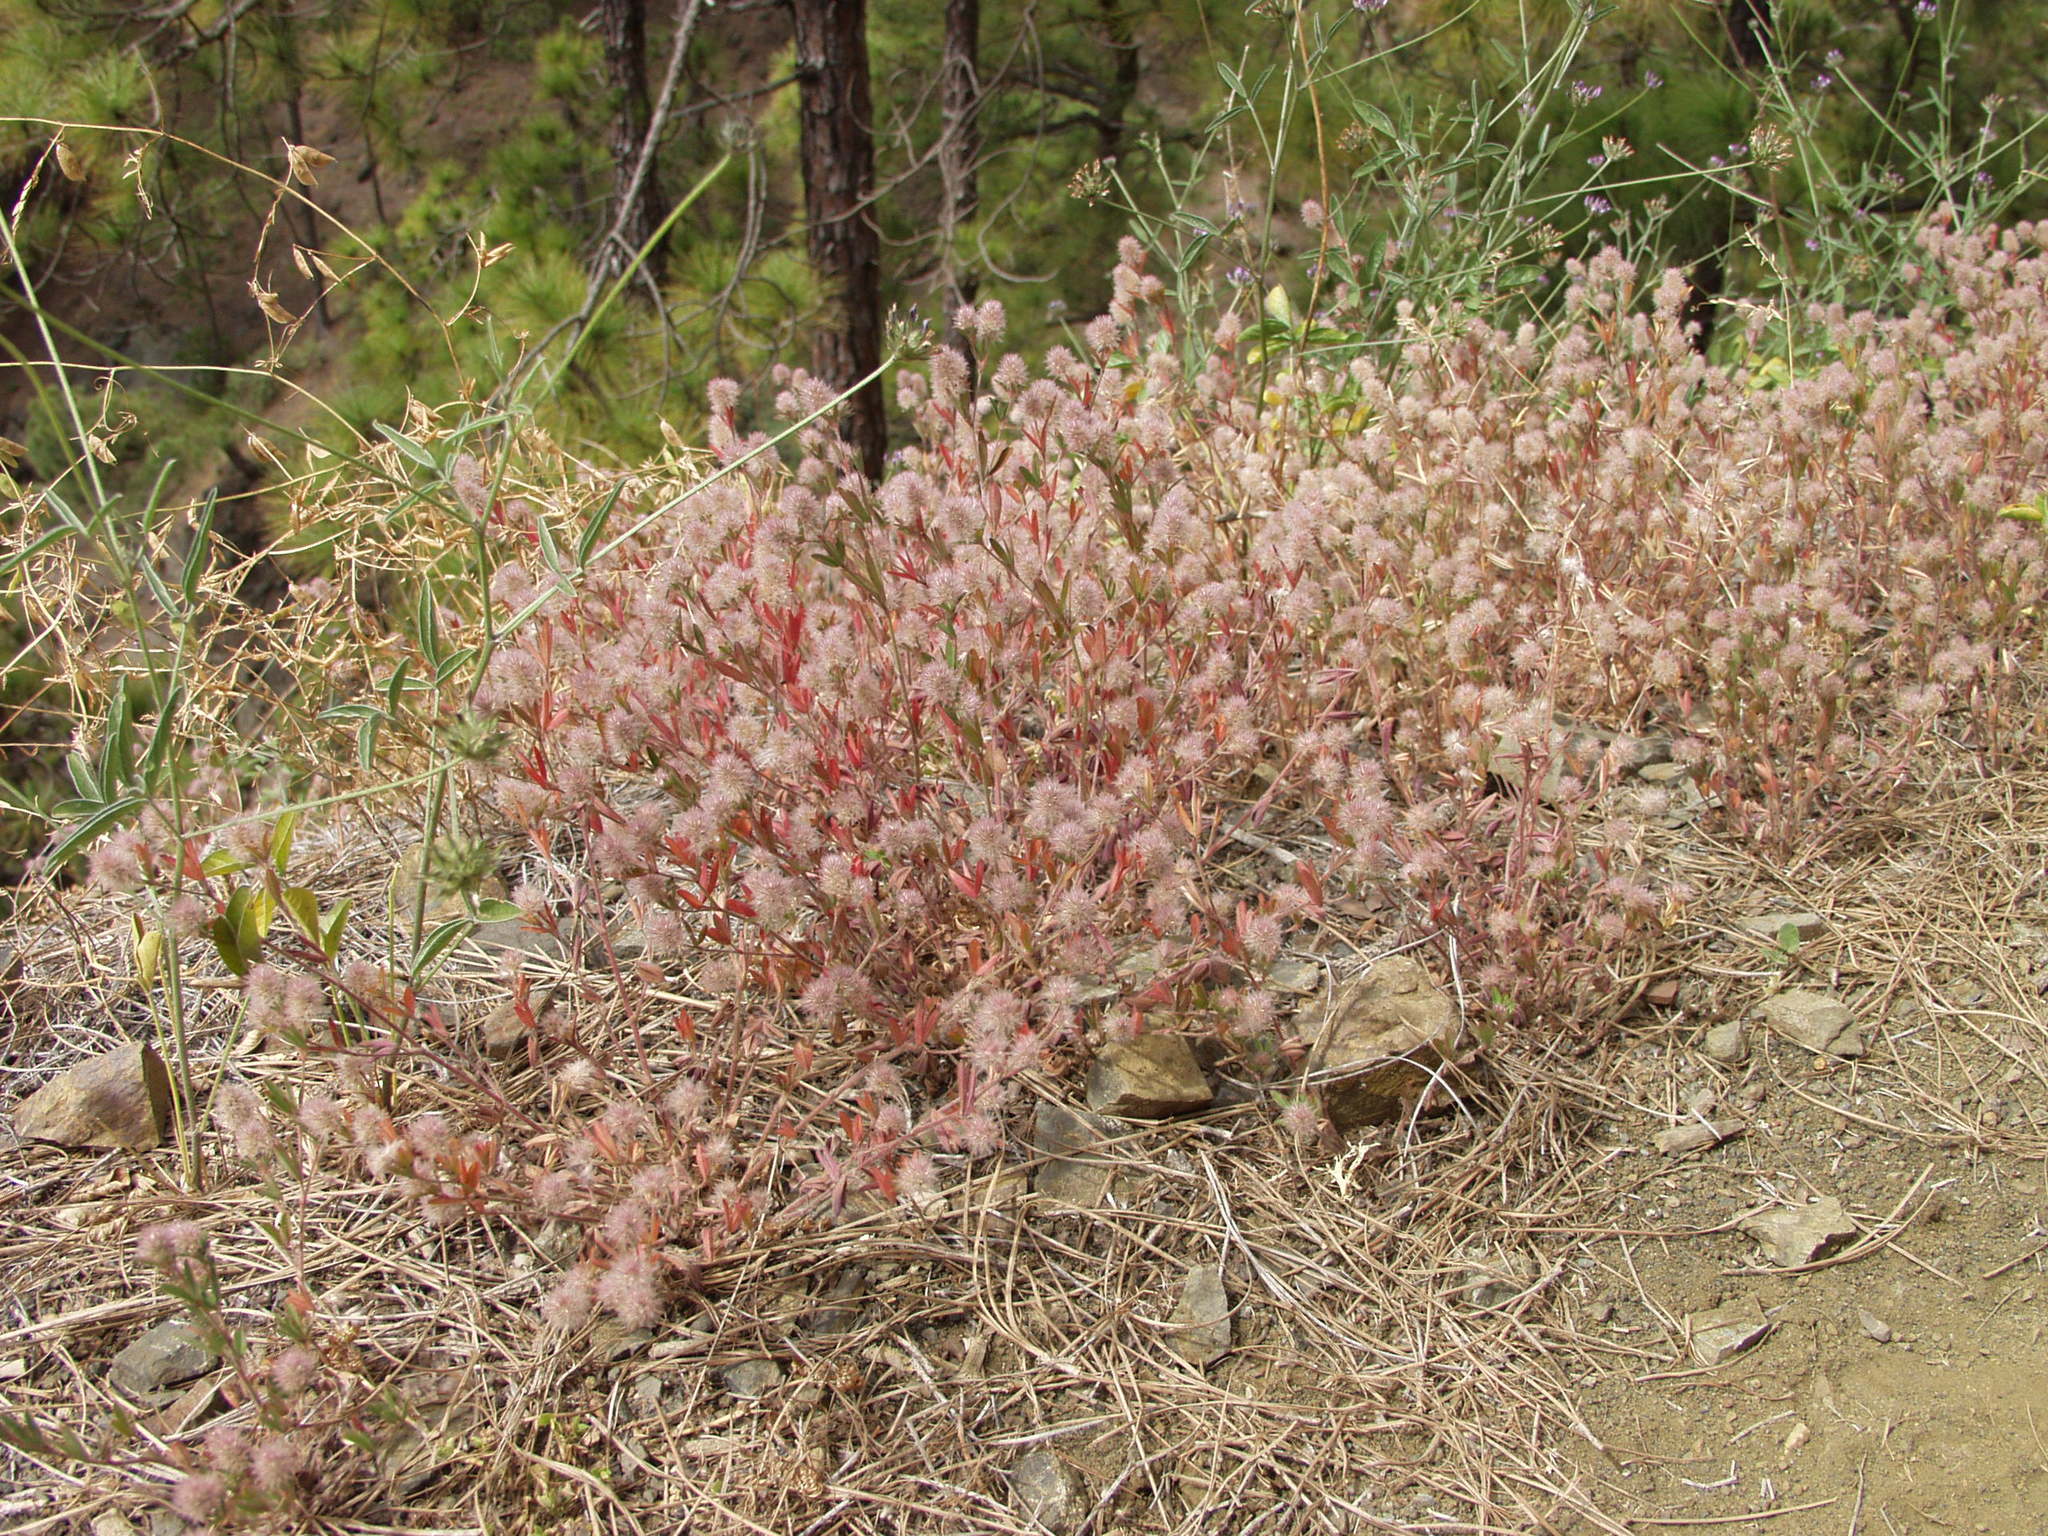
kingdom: Plantae
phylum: Tracheophyta
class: Magnoliopsida
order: Fabales
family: Fabaceae
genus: Trifolium
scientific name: Trifolium arvense
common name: Hare's-foot clover
